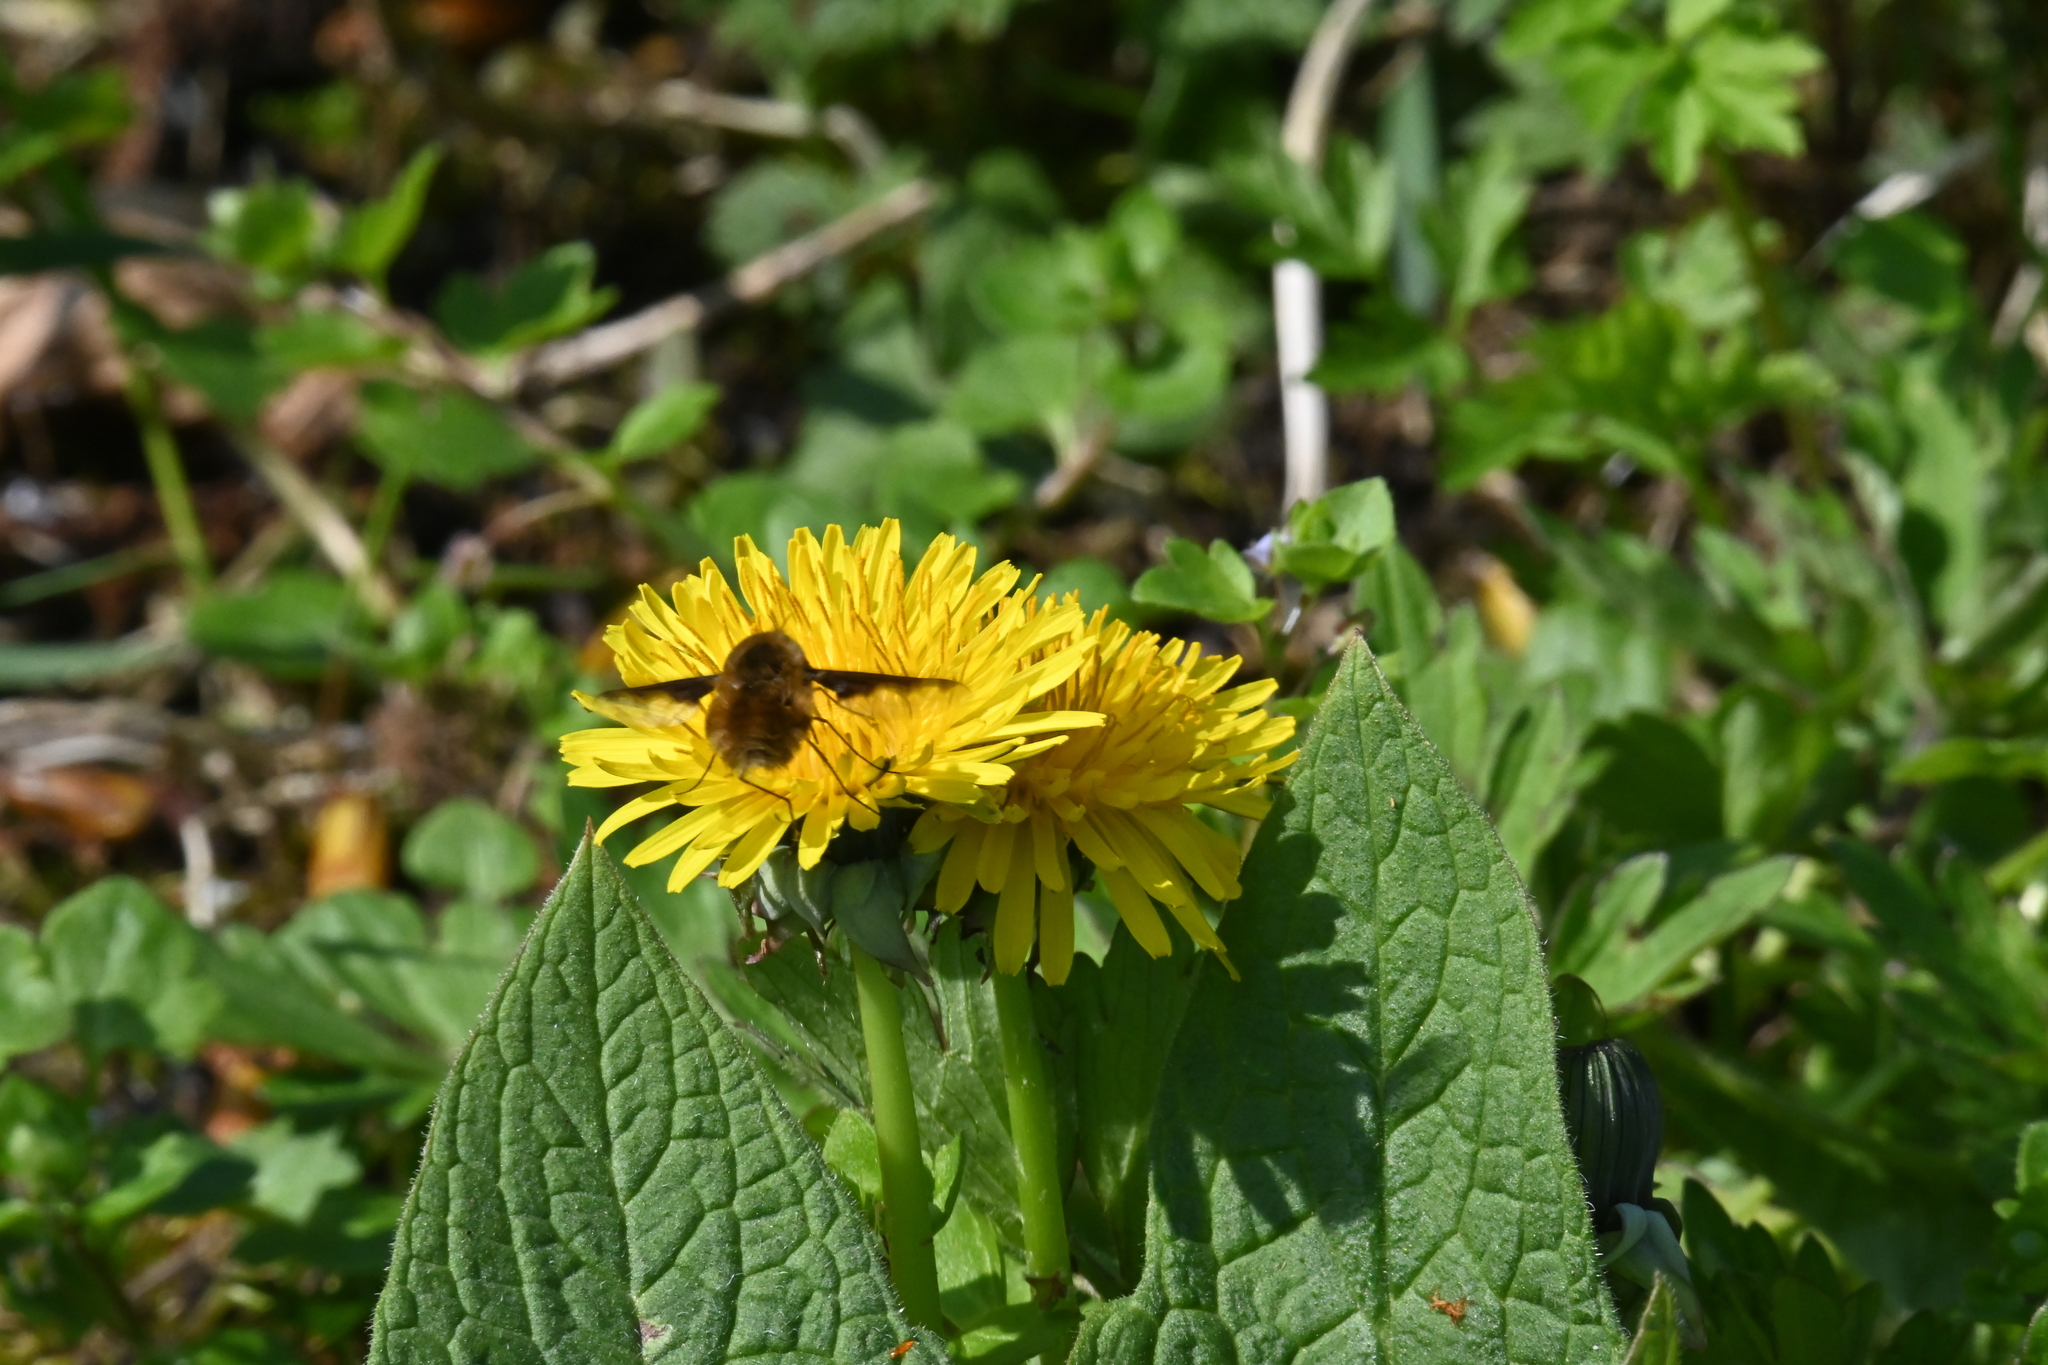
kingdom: Animalia
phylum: Arthropoda
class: Insecta
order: Diptera
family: Bombyliidae
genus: Bombylius
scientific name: Bombylius major
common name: Bee fly
